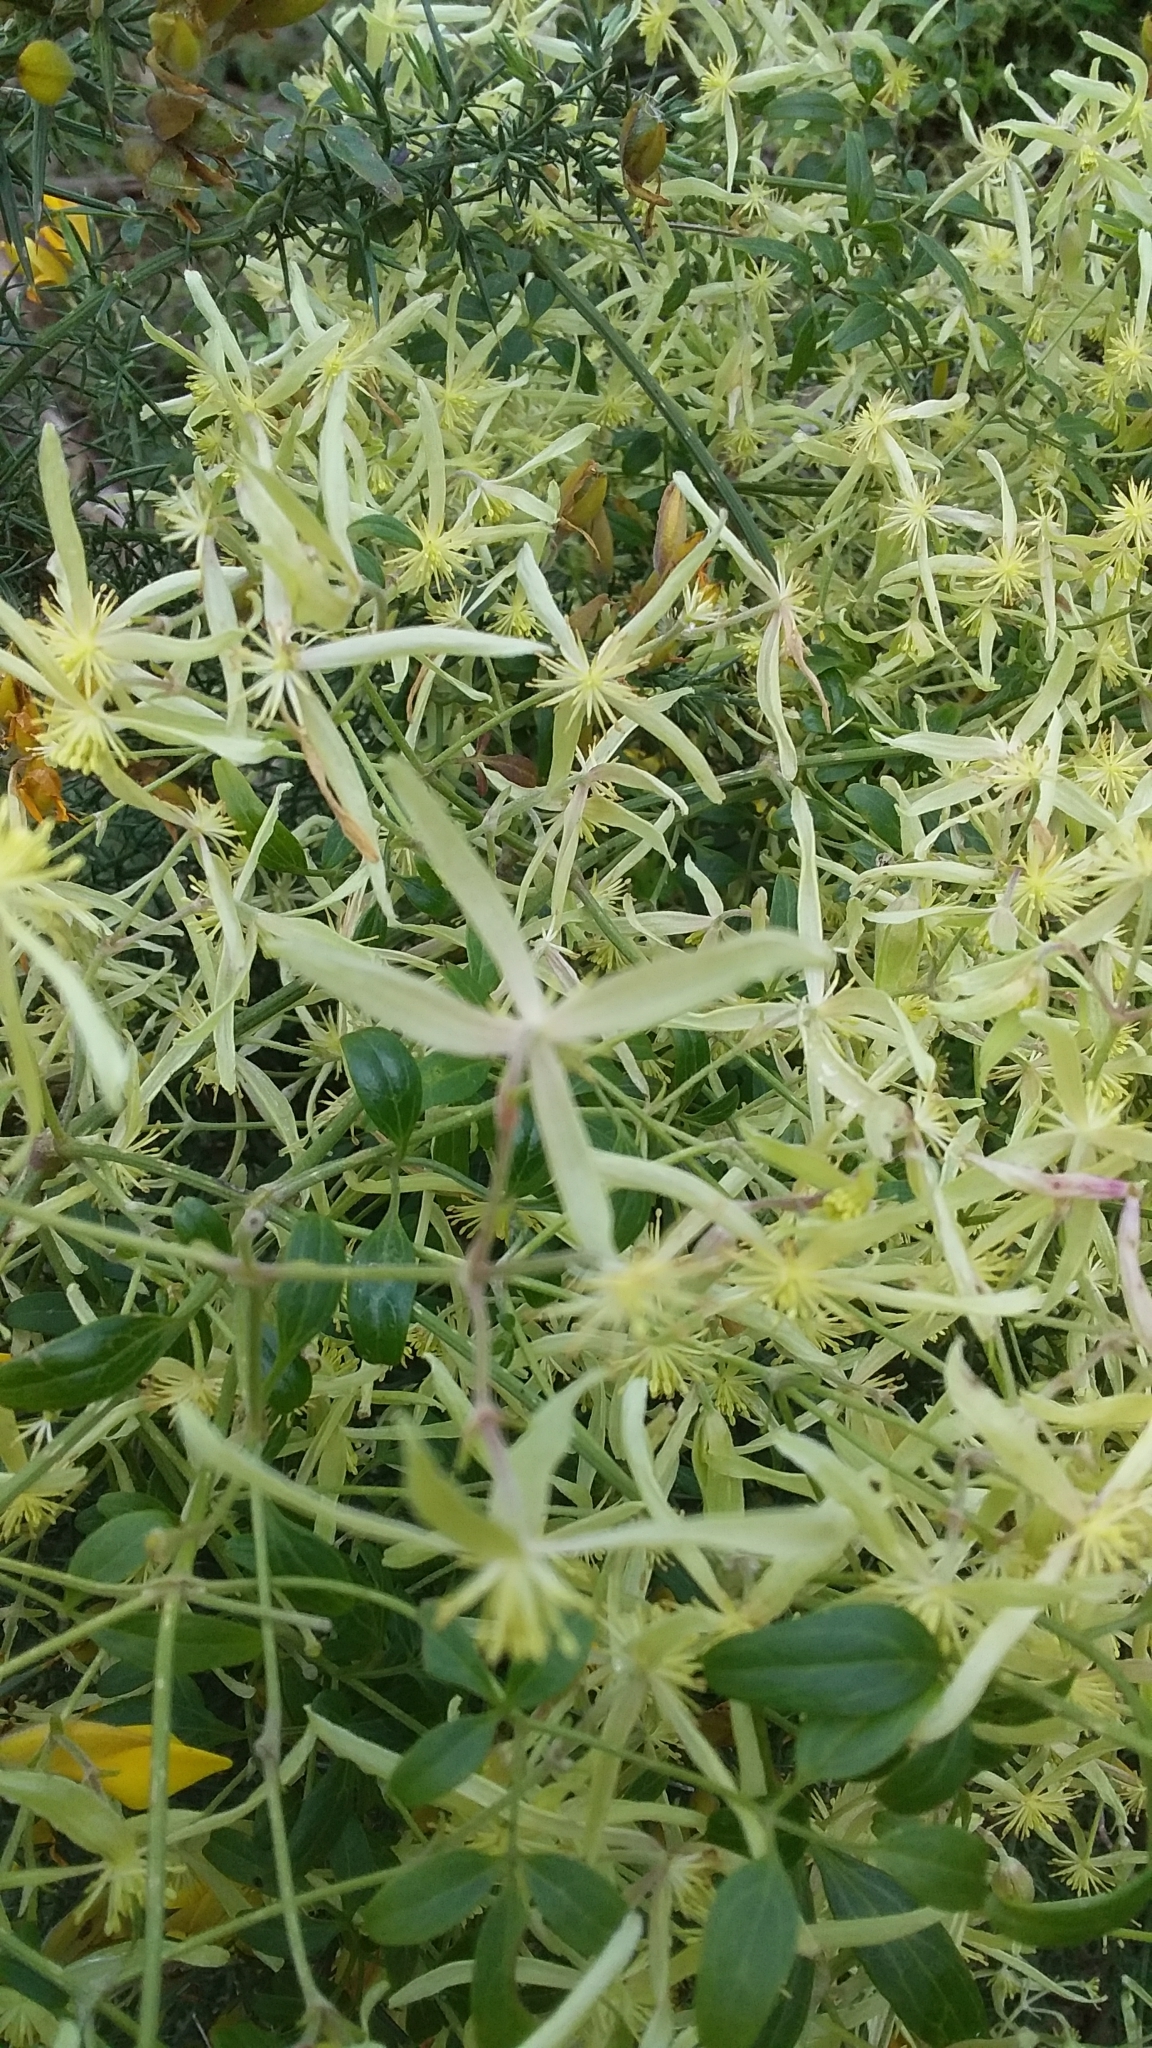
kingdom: Plantae
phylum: Tracheophyta
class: Magnoliopsida
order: Ranunculales
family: Ranunculaceae
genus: Clematis
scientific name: Clematis microphylla
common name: Headachevine
